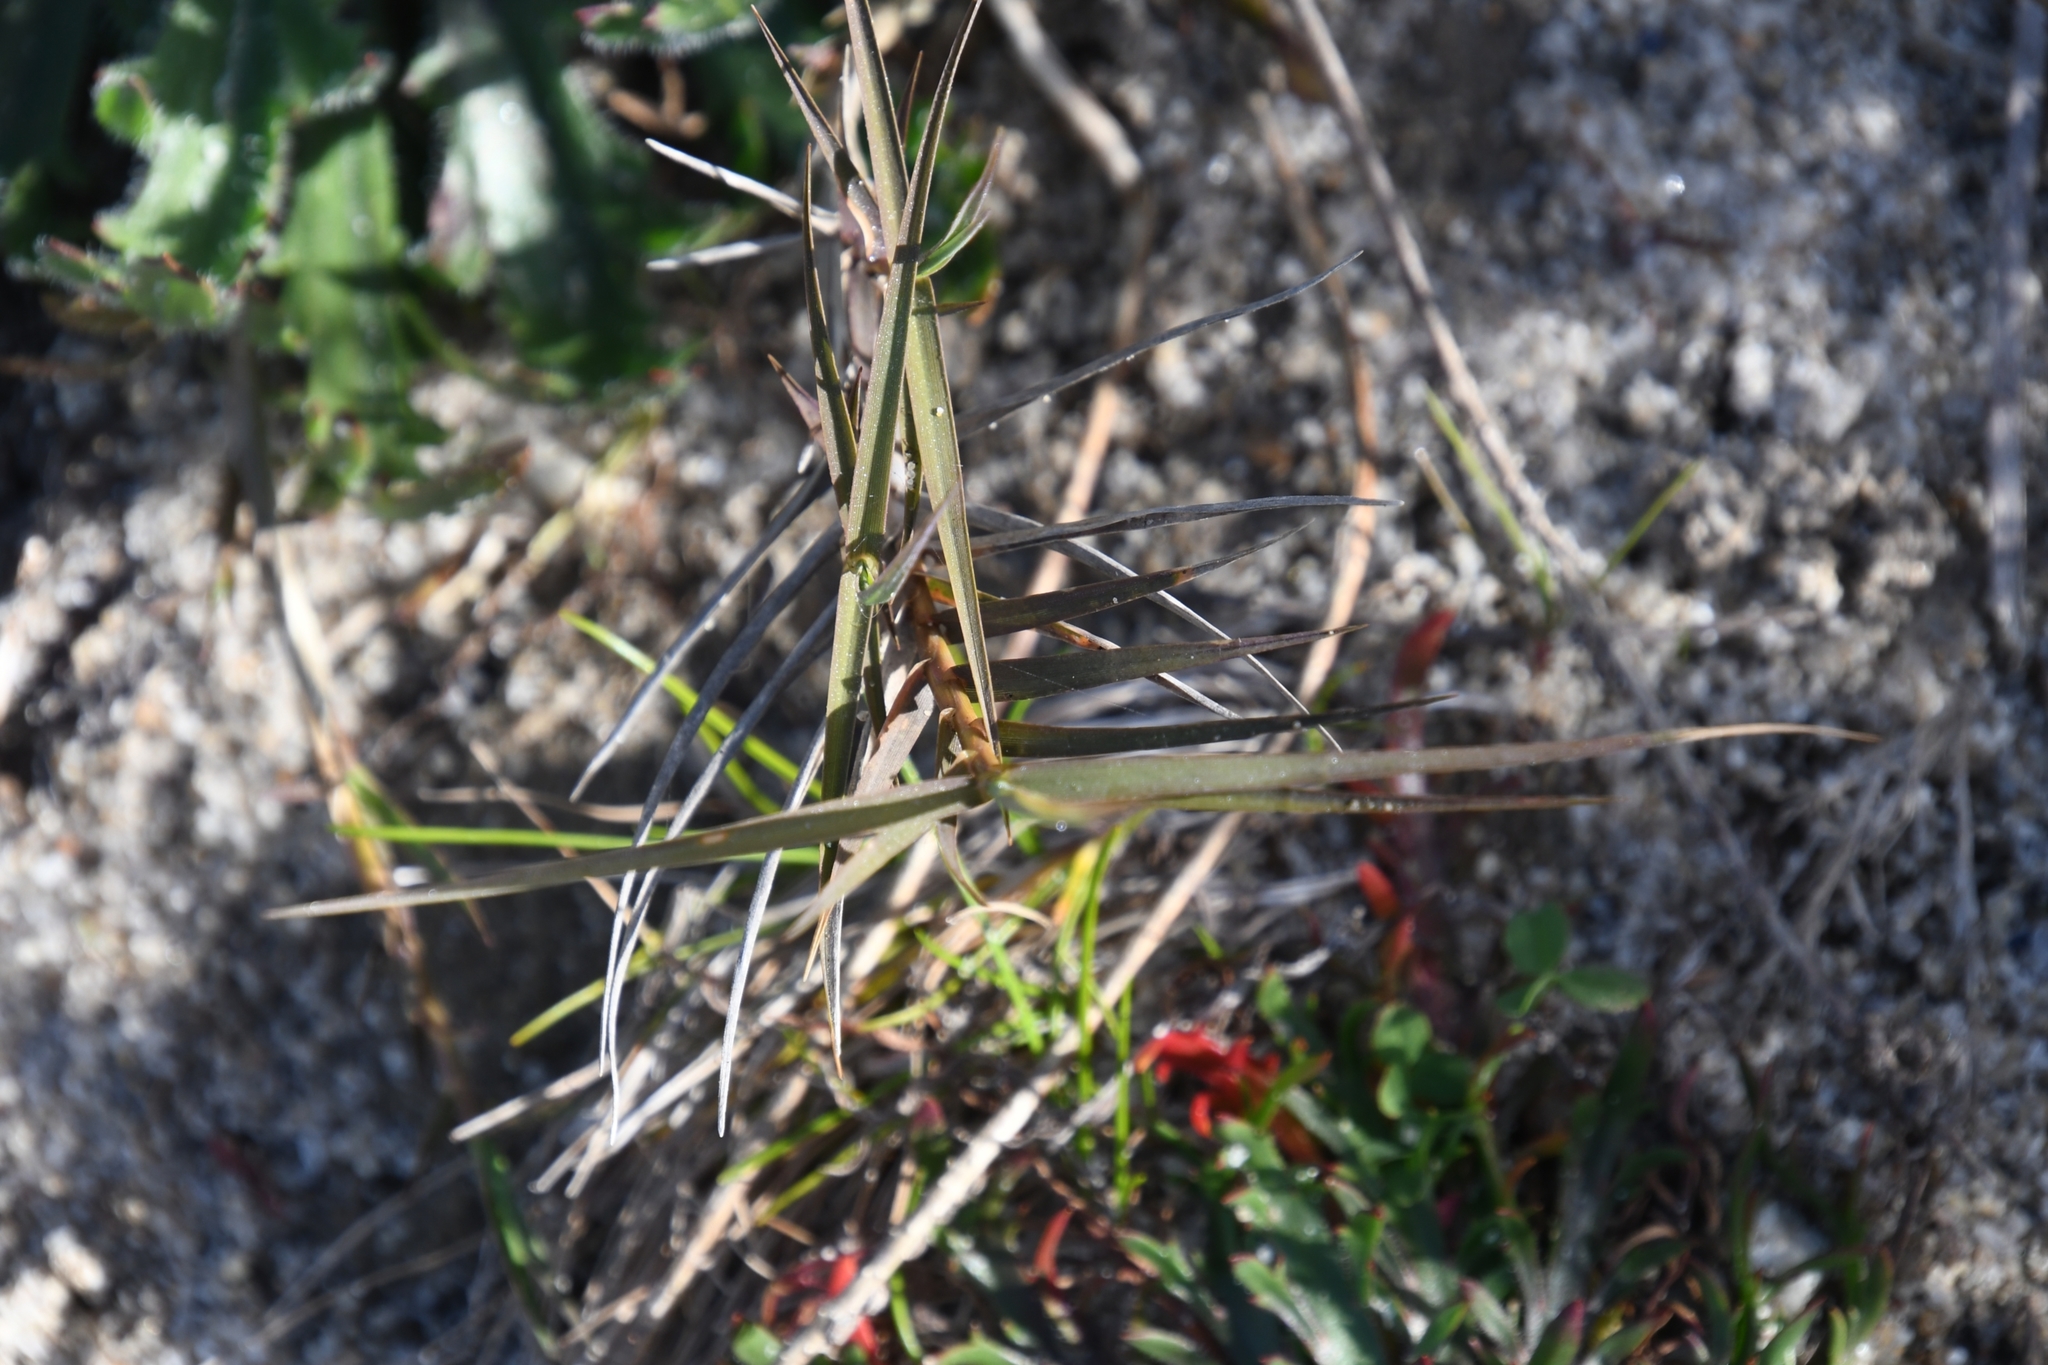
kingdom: Plantae
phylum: Tracheophyta
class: Liliopsida
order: Poales
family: Poaceae
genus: Distichlis
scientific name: Distichlis spicata
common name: Saltgrass
